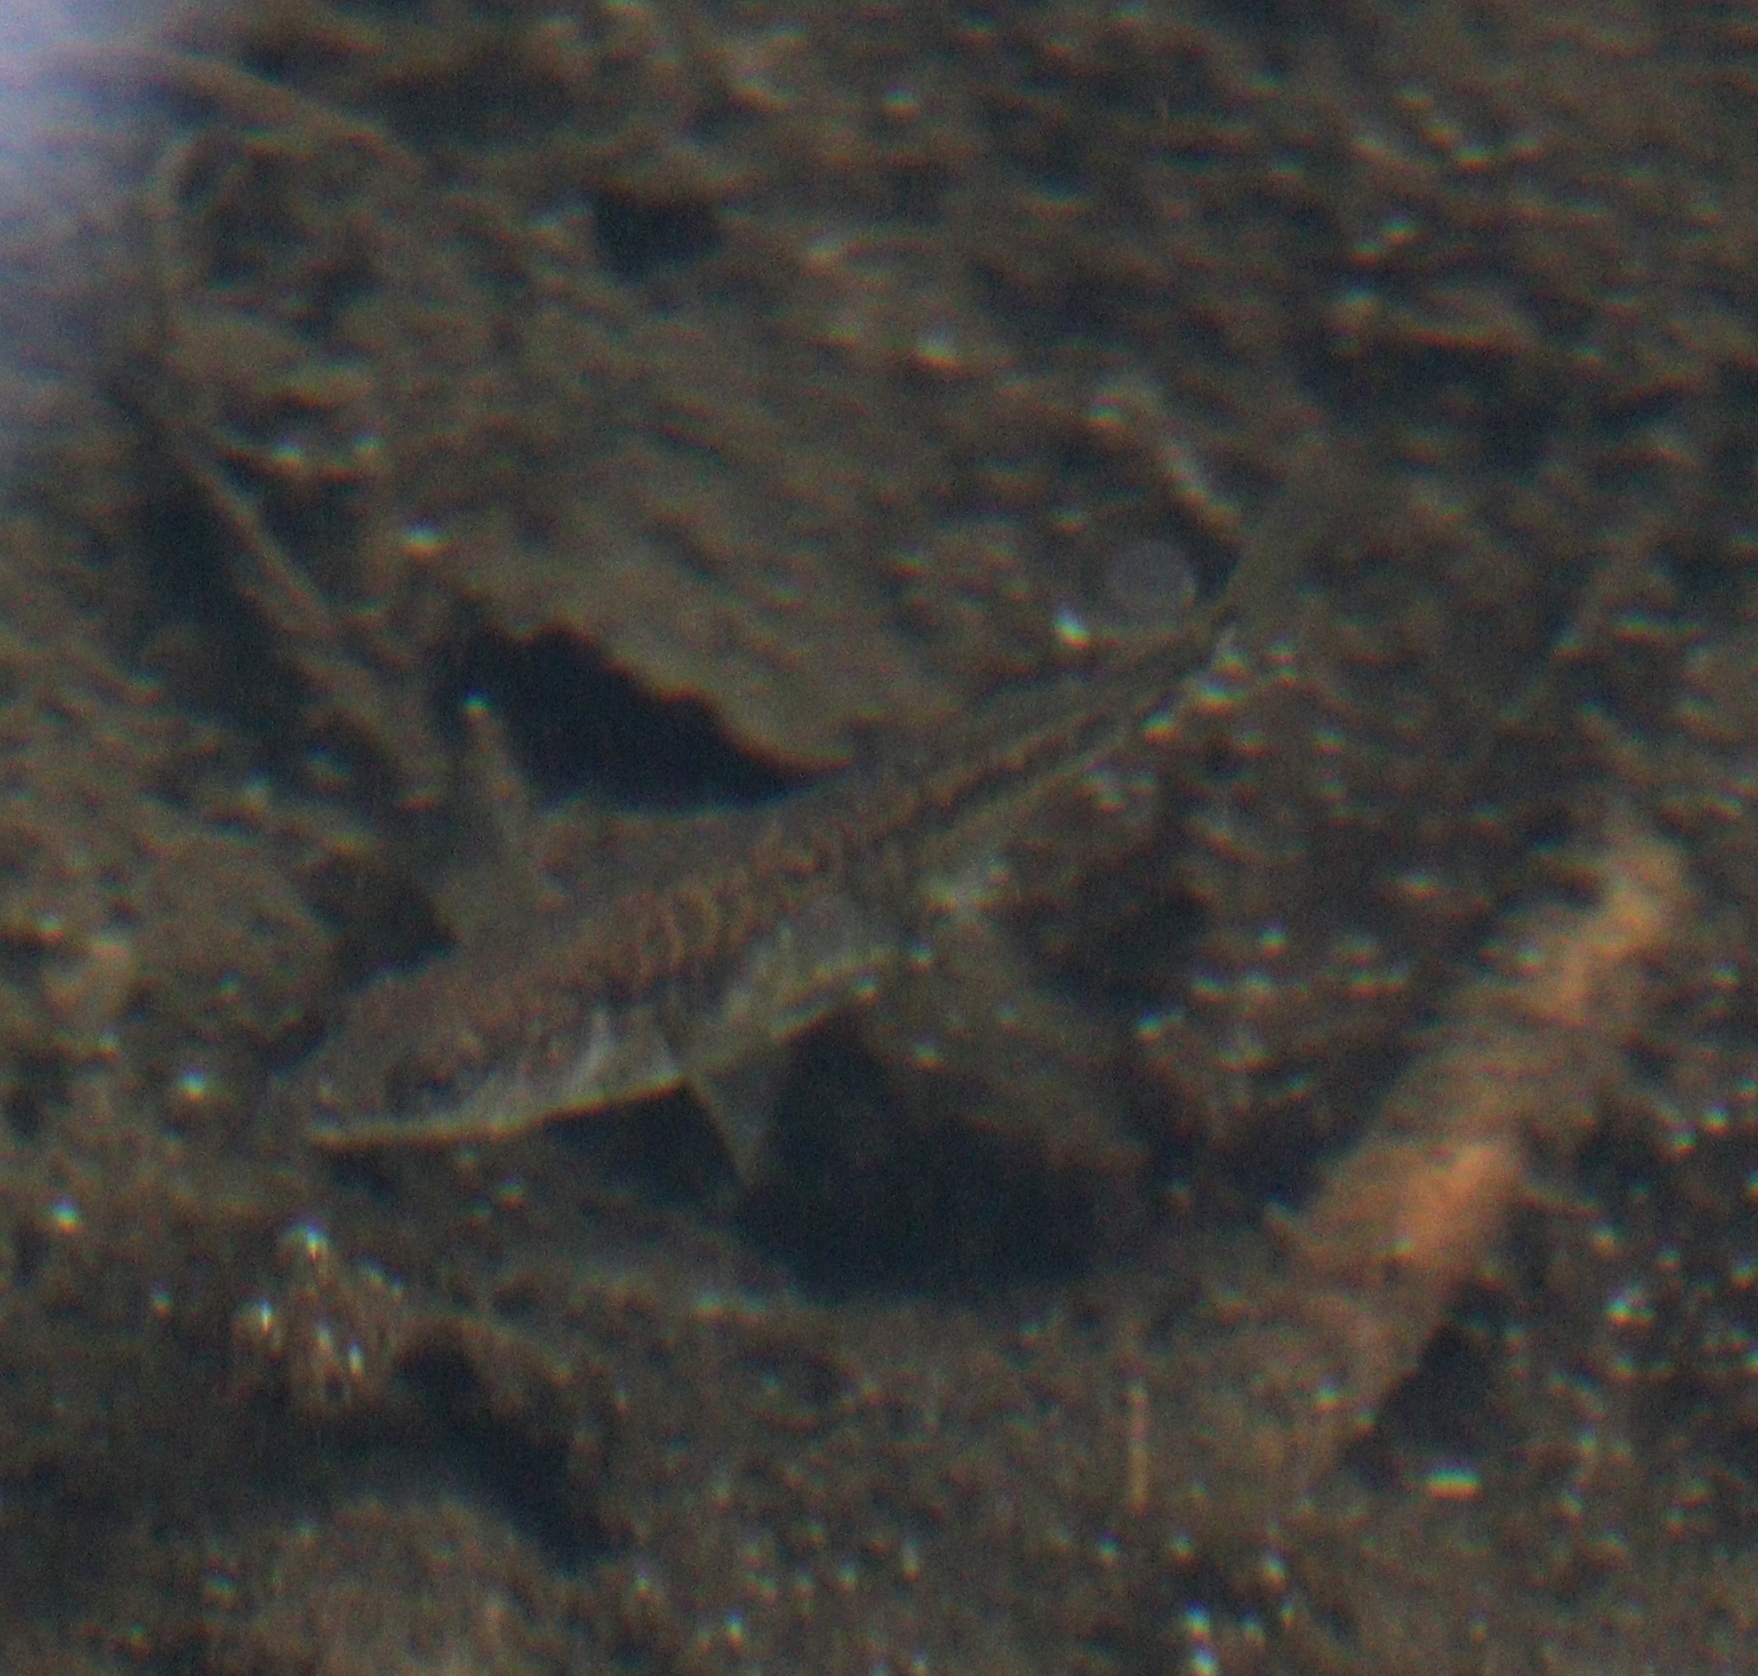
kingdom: Animalia
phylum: Chordata
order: Gasterosteiformes
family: Gasterosteidae
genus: Gasterosteus
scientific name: Gasterosteus aculeatus
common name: Three-spined stickleback
